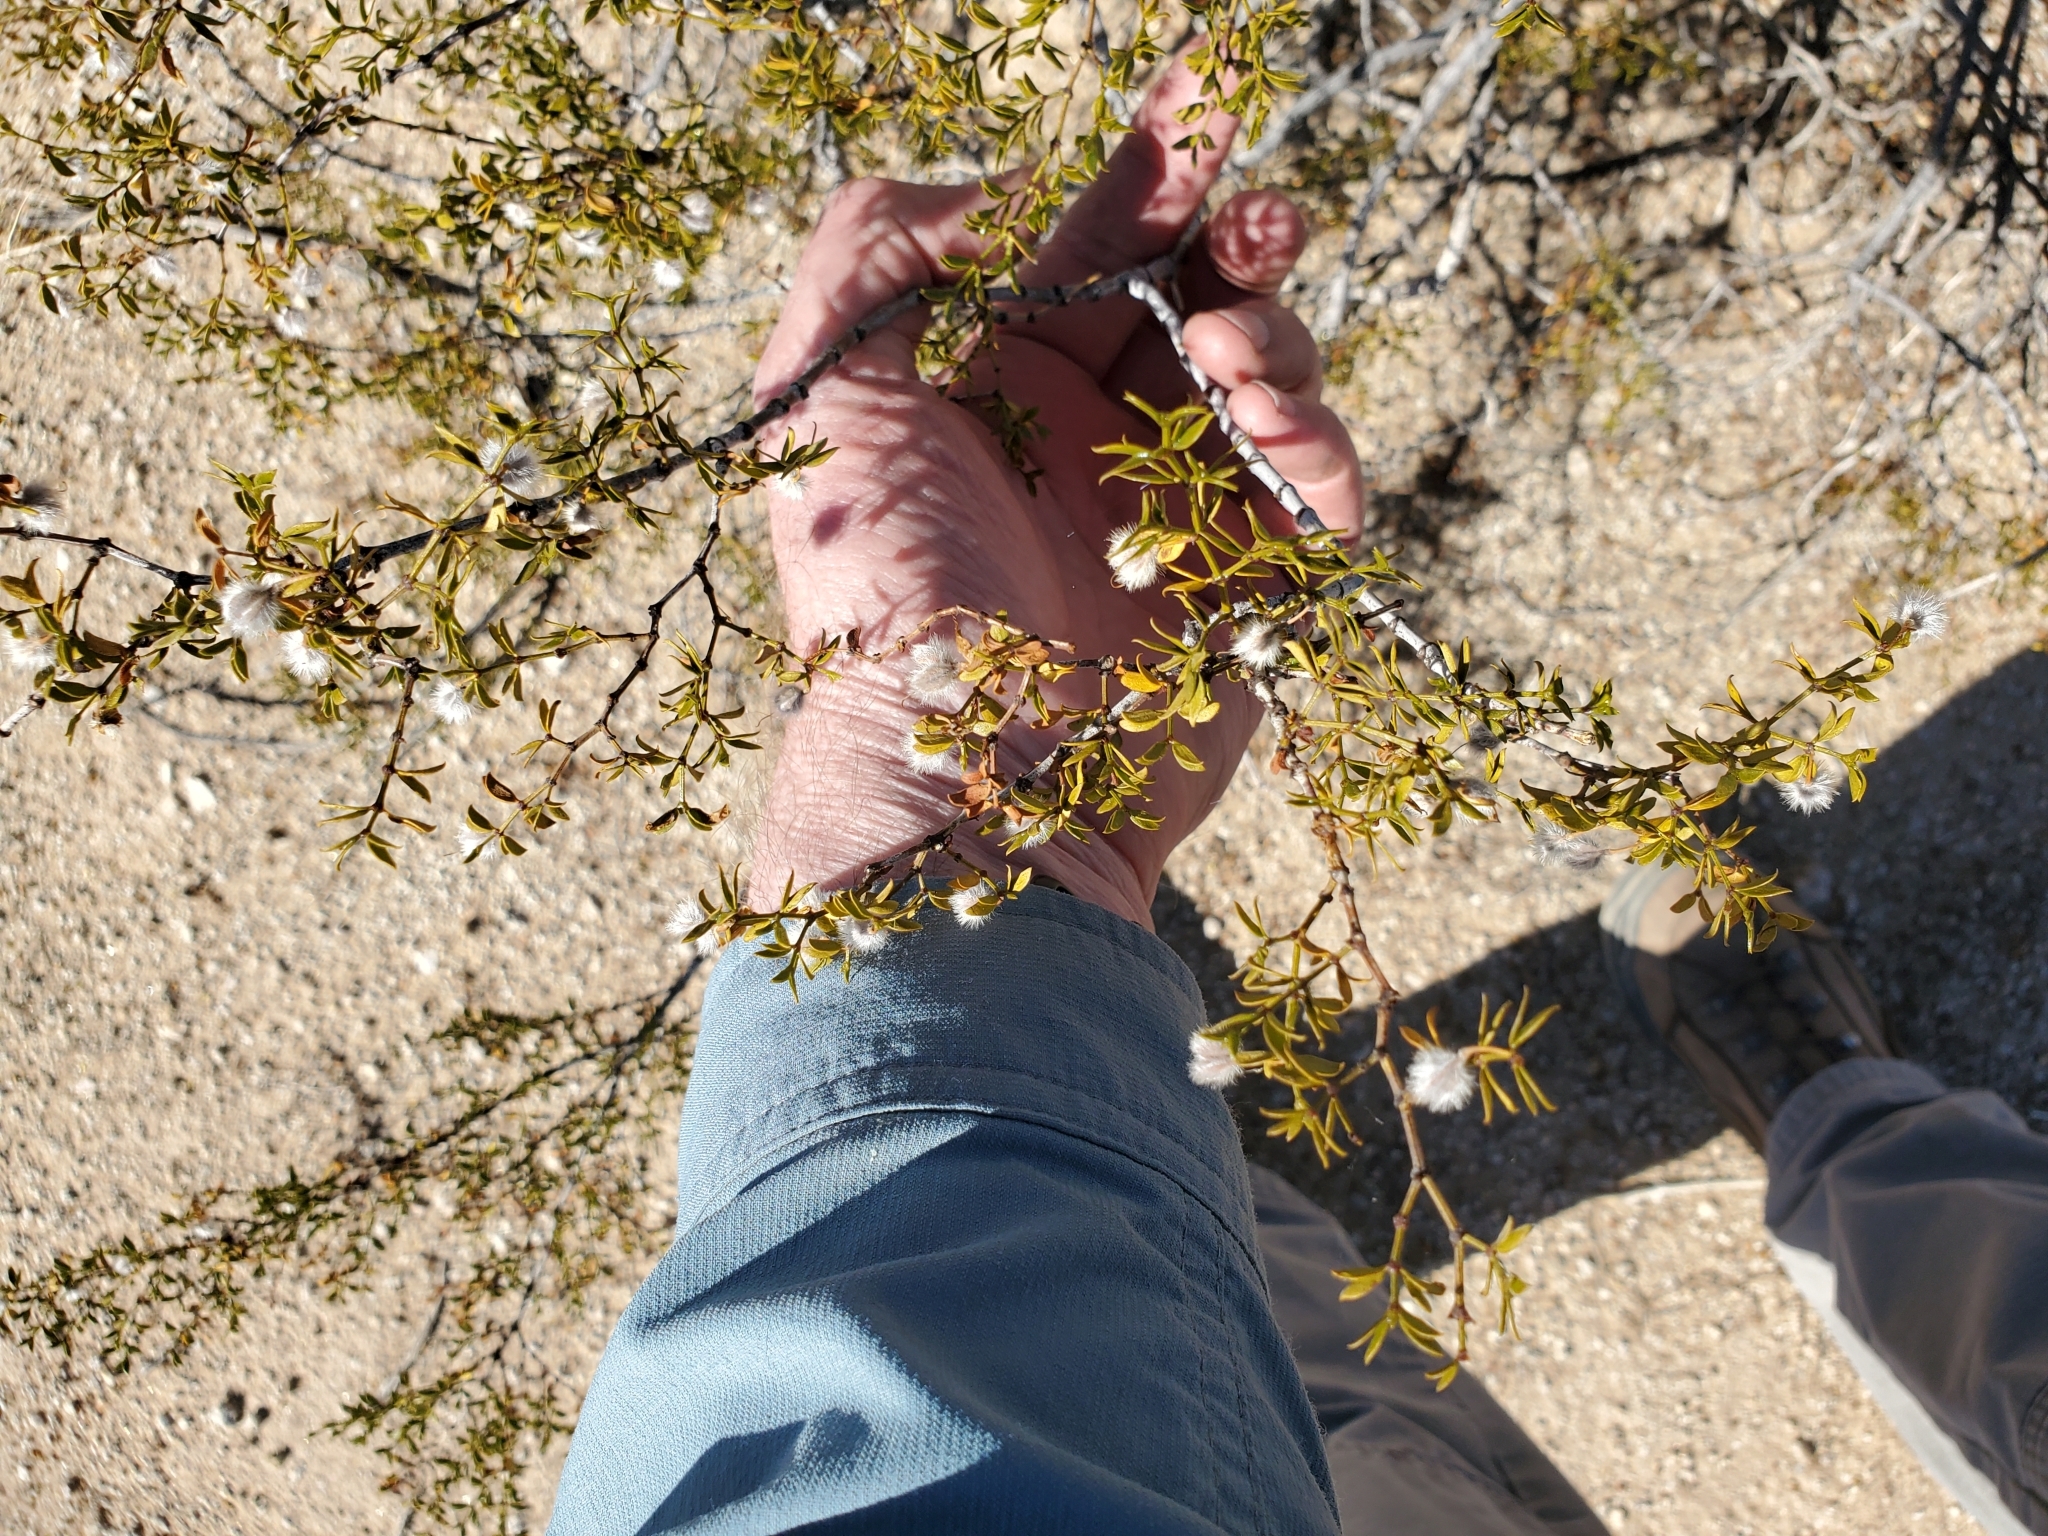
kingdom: Plantae
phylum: Tracheophyta
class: Magnoliopsida
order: Zygophyllales
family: Zygophyllaceae
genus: Larrea
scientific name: Larrea tridentata
